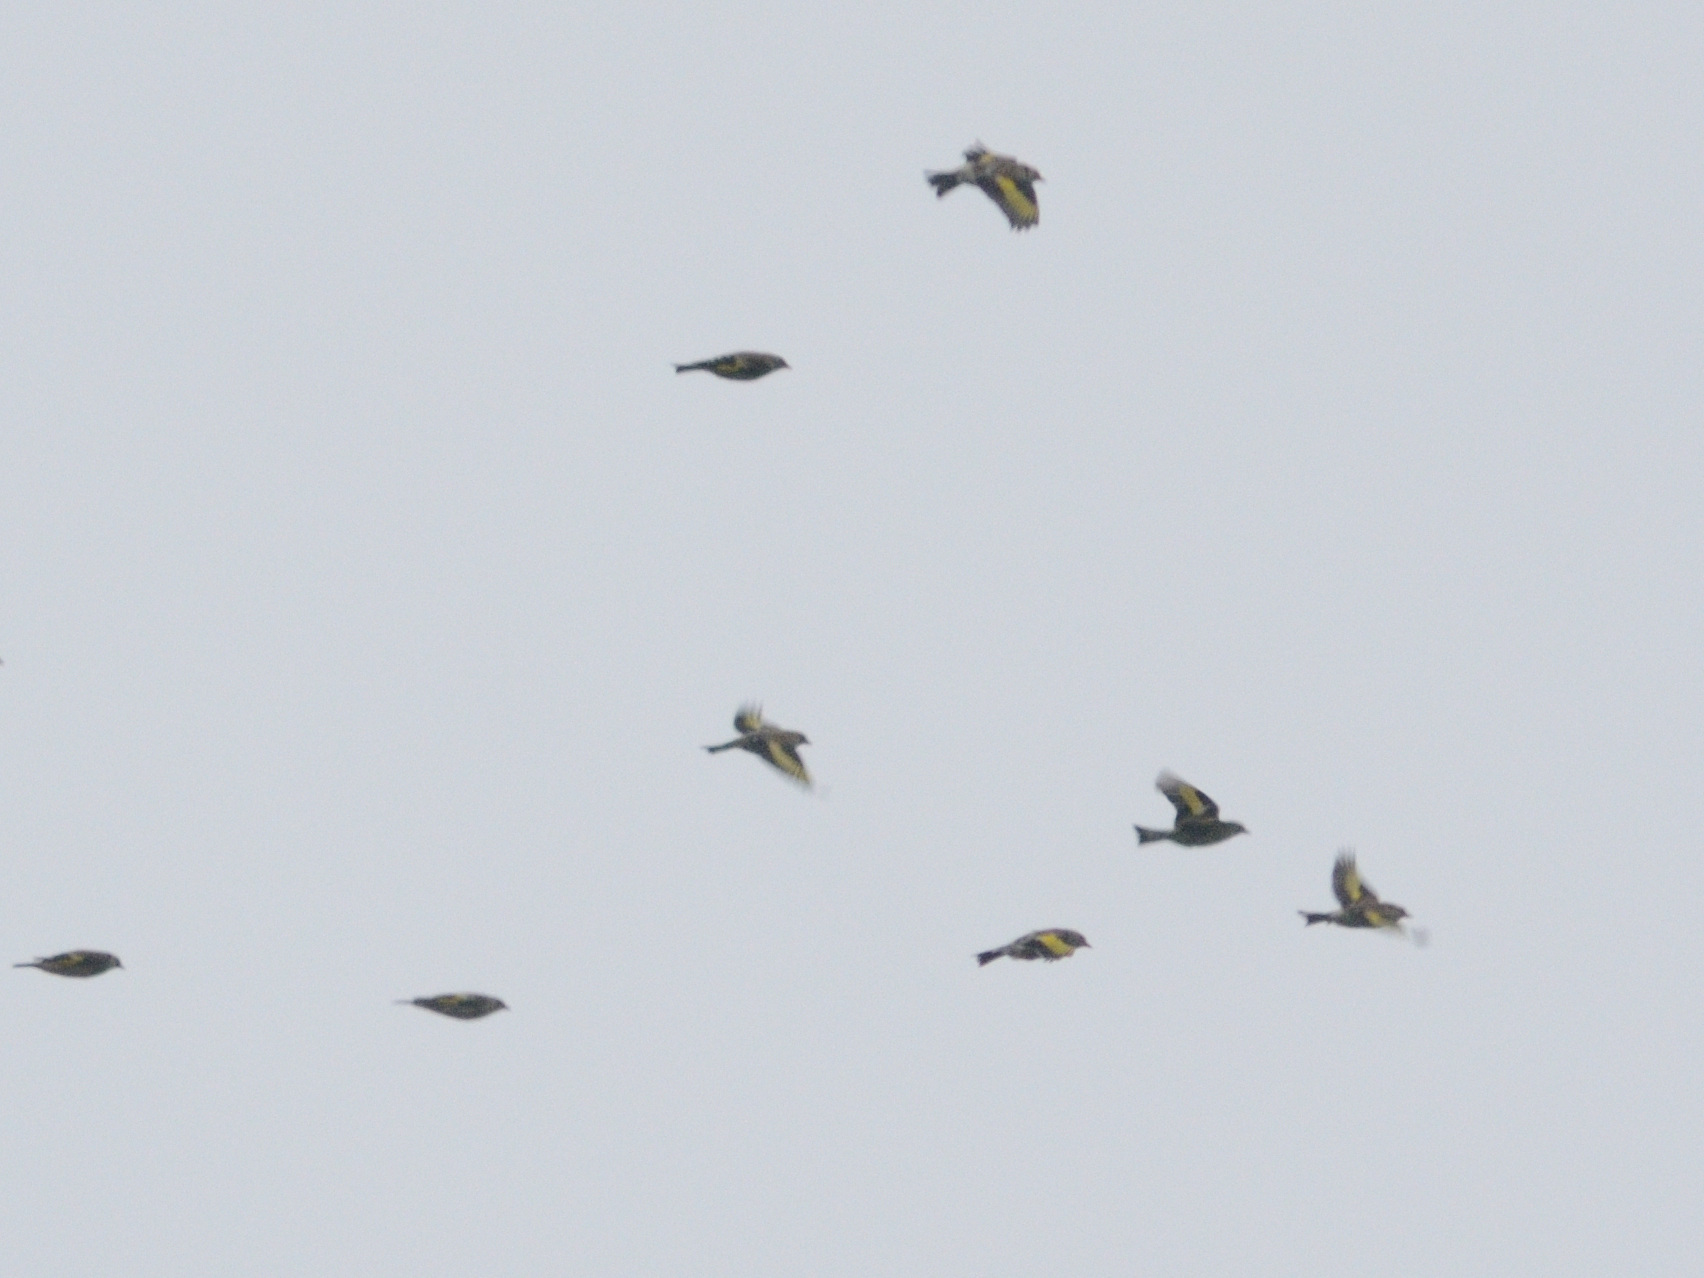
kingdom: Animalia
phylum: Chordata
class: Aves
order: Passeriformes
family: Fringillidae
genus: Carduelis
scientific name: Carduelis carduelis
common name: European goldfinch
